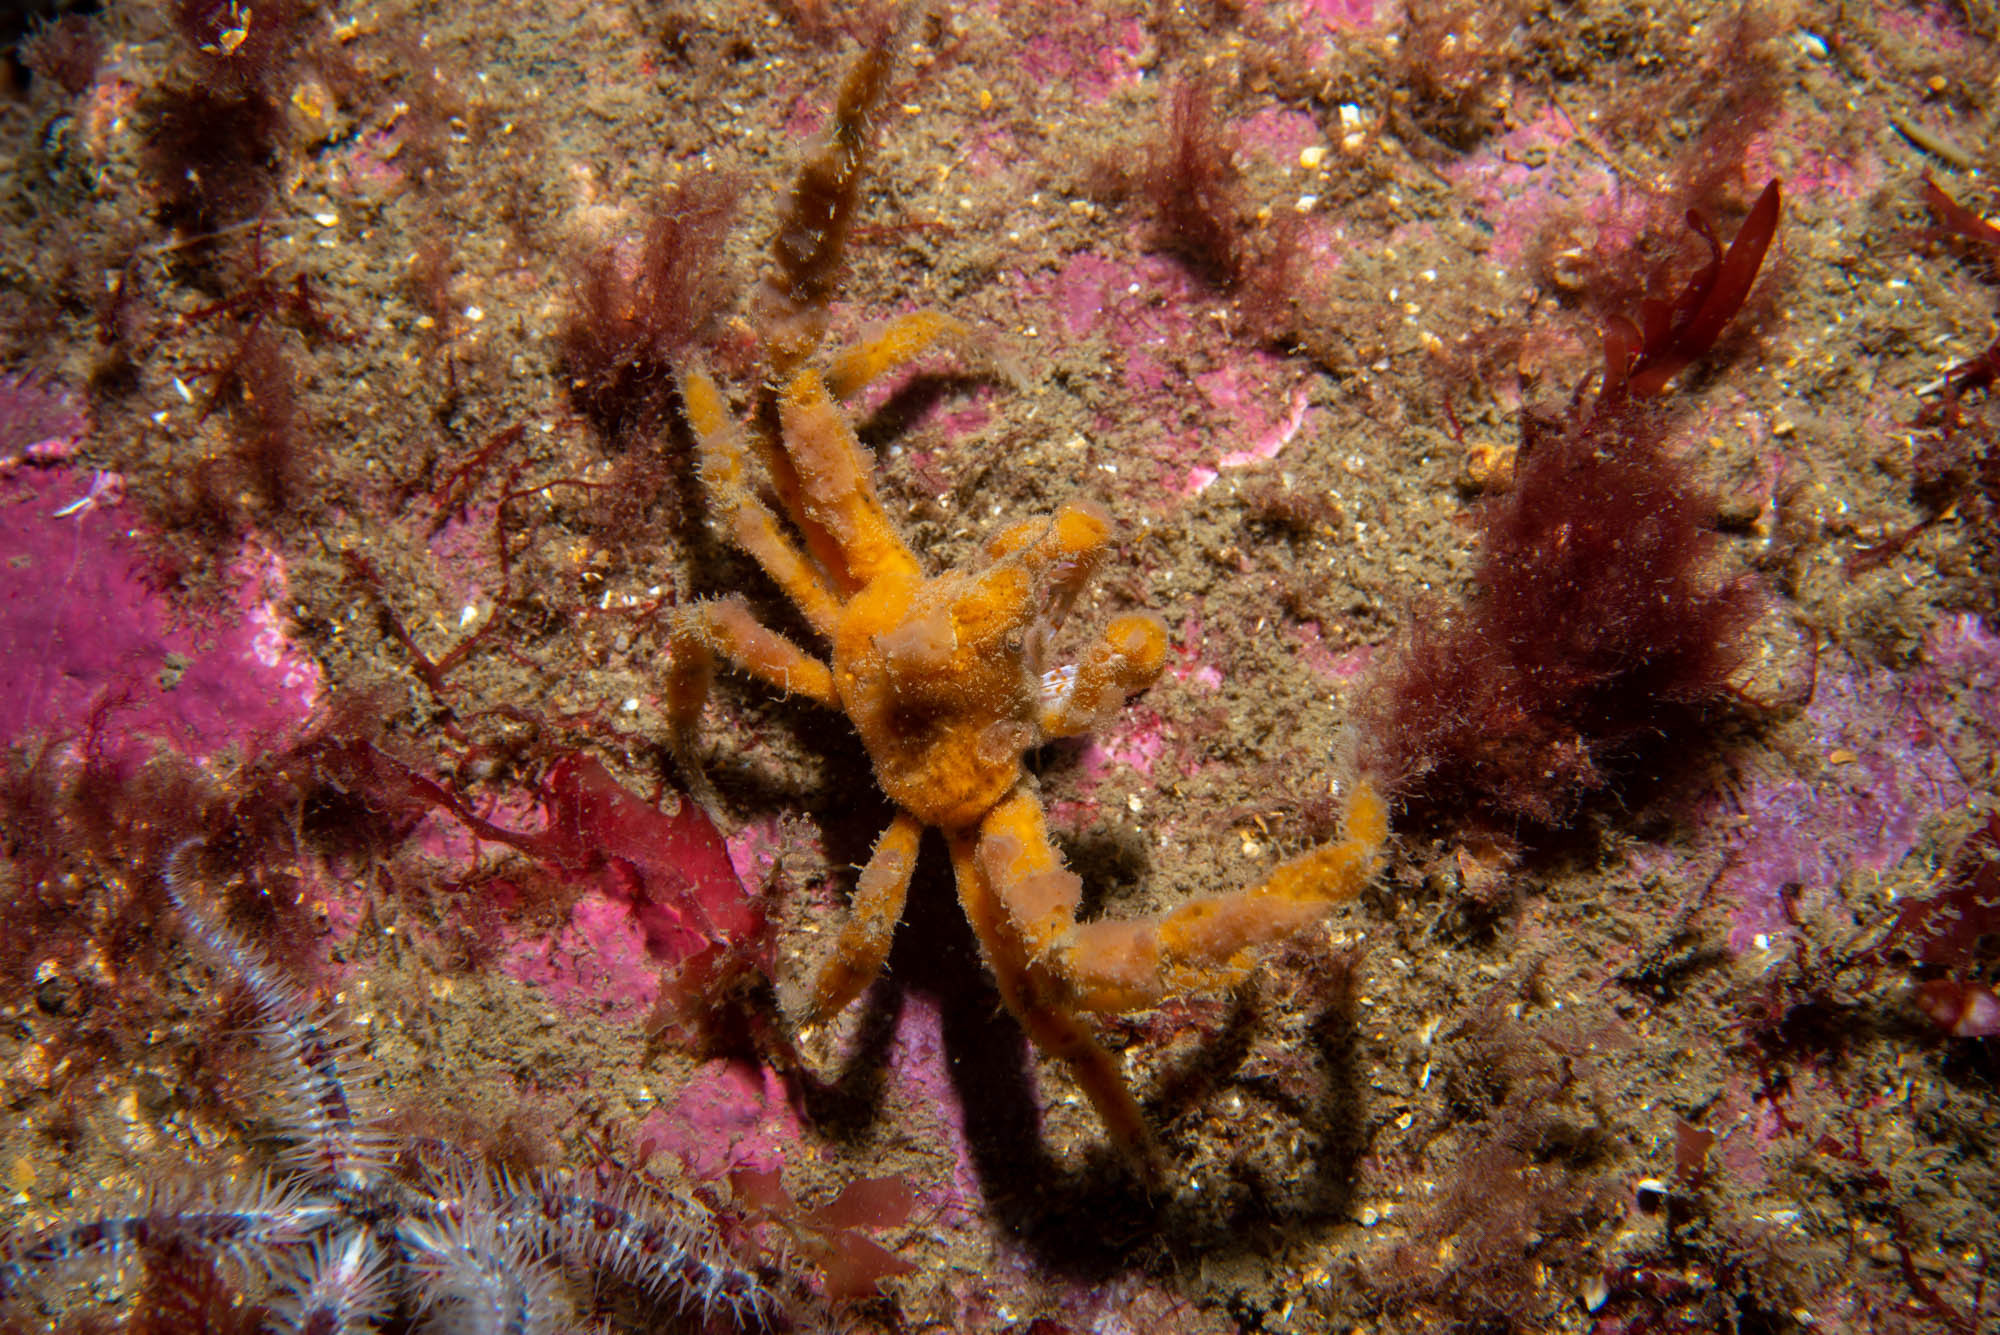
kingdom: Animalia
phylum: Arthropoda
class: Malacostraca
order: Decapoda
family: Inachidae
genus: Inachus
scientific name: Inachus phalangium
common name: Leach's spider crab
